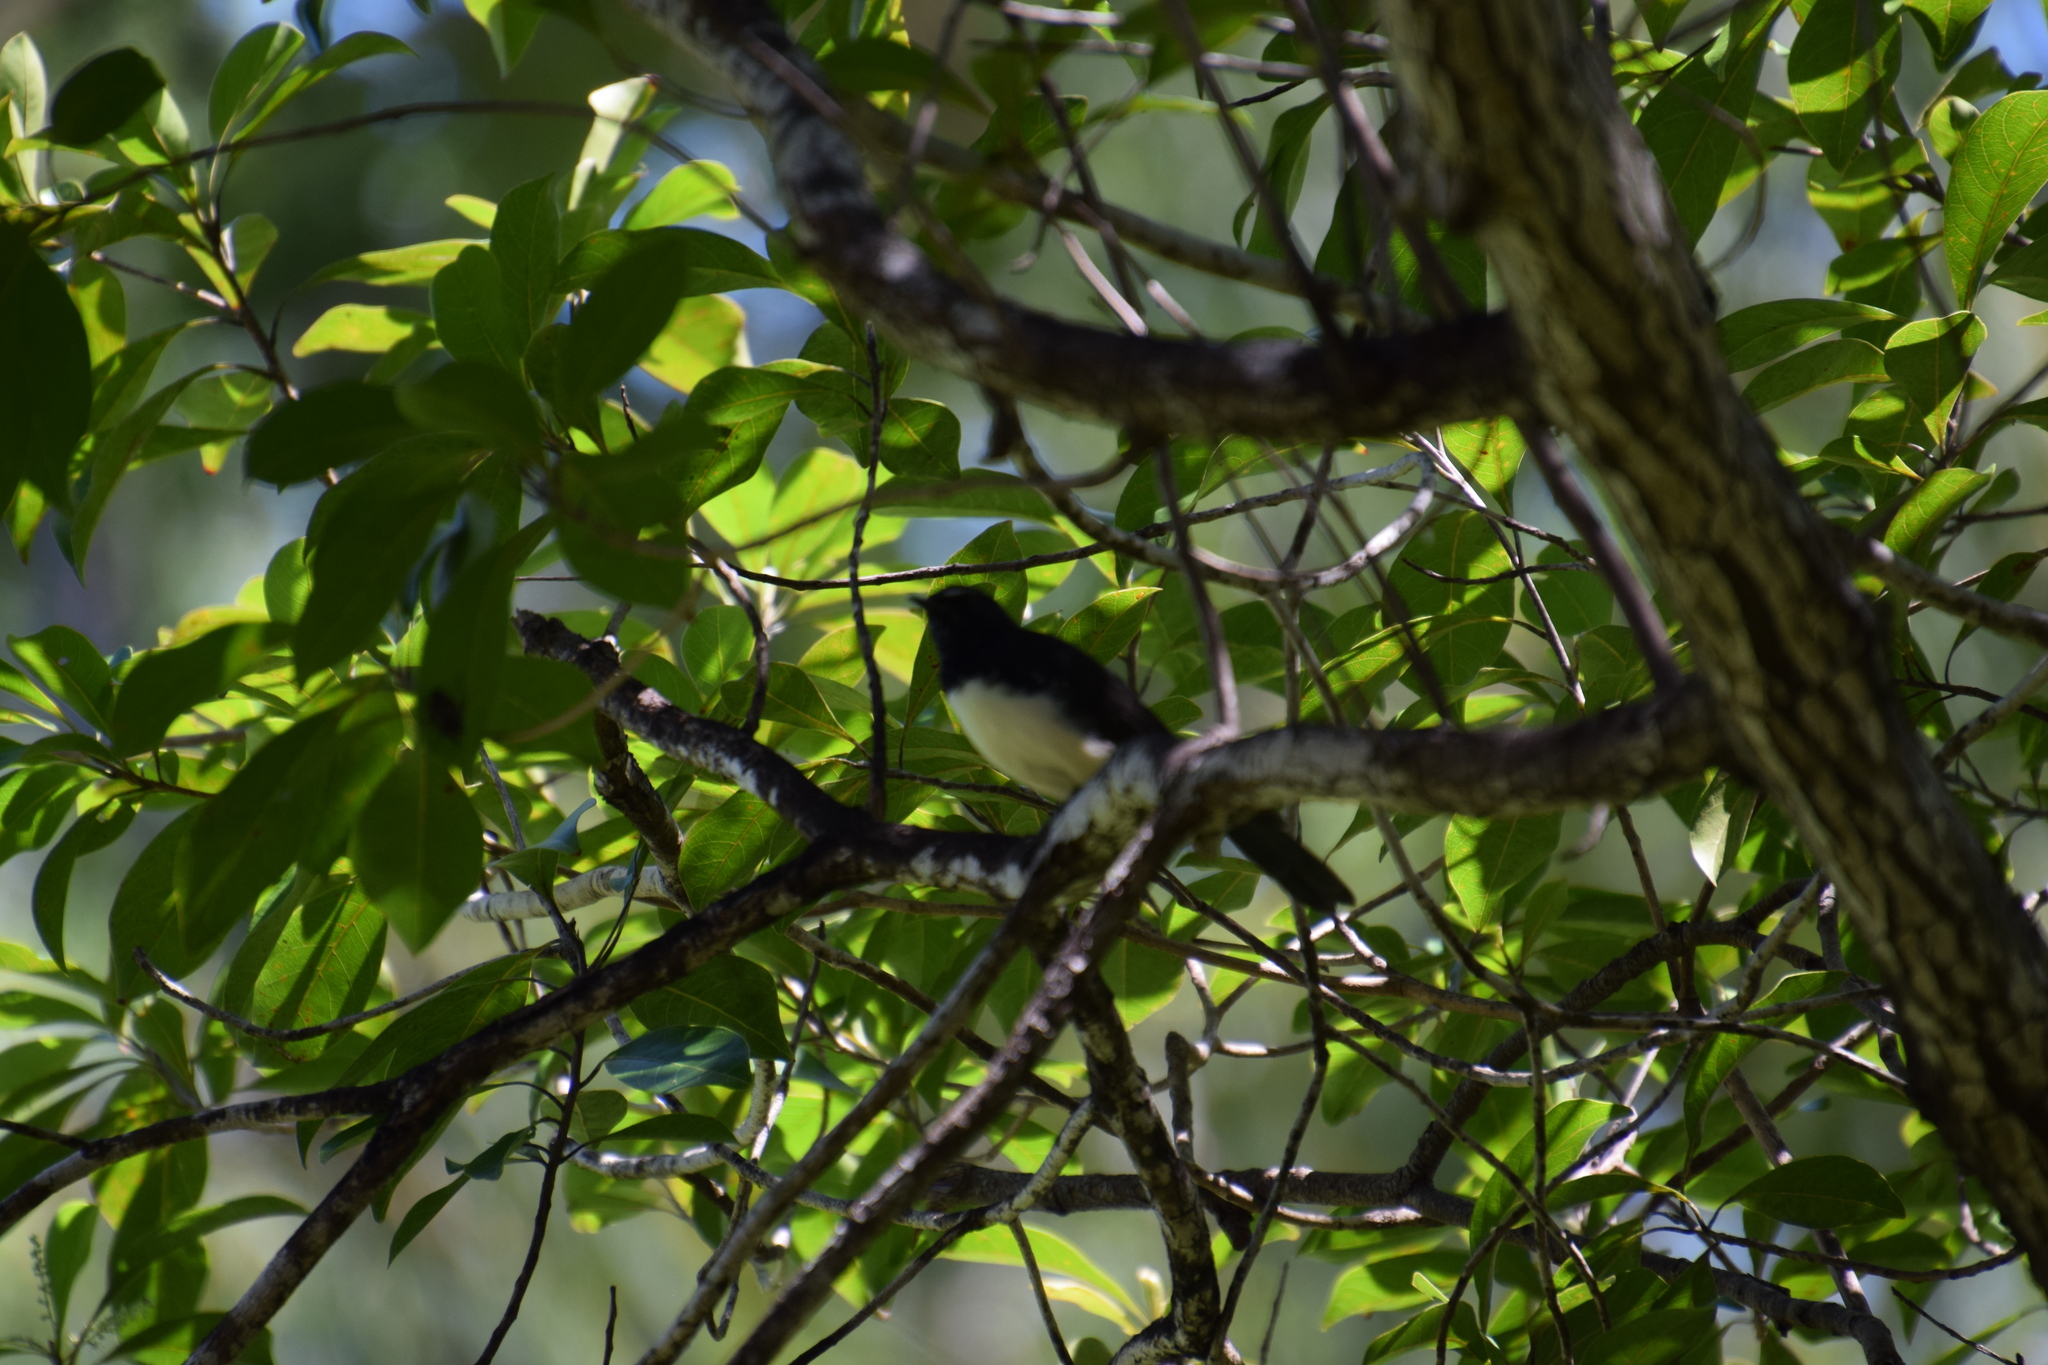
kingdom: Animalia
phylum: Chordata
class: Aves
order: Passeriformes
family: Rhipiduridae
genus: Rhipidura
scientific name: Rhipidura leucophrys
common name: Willie wagtail
